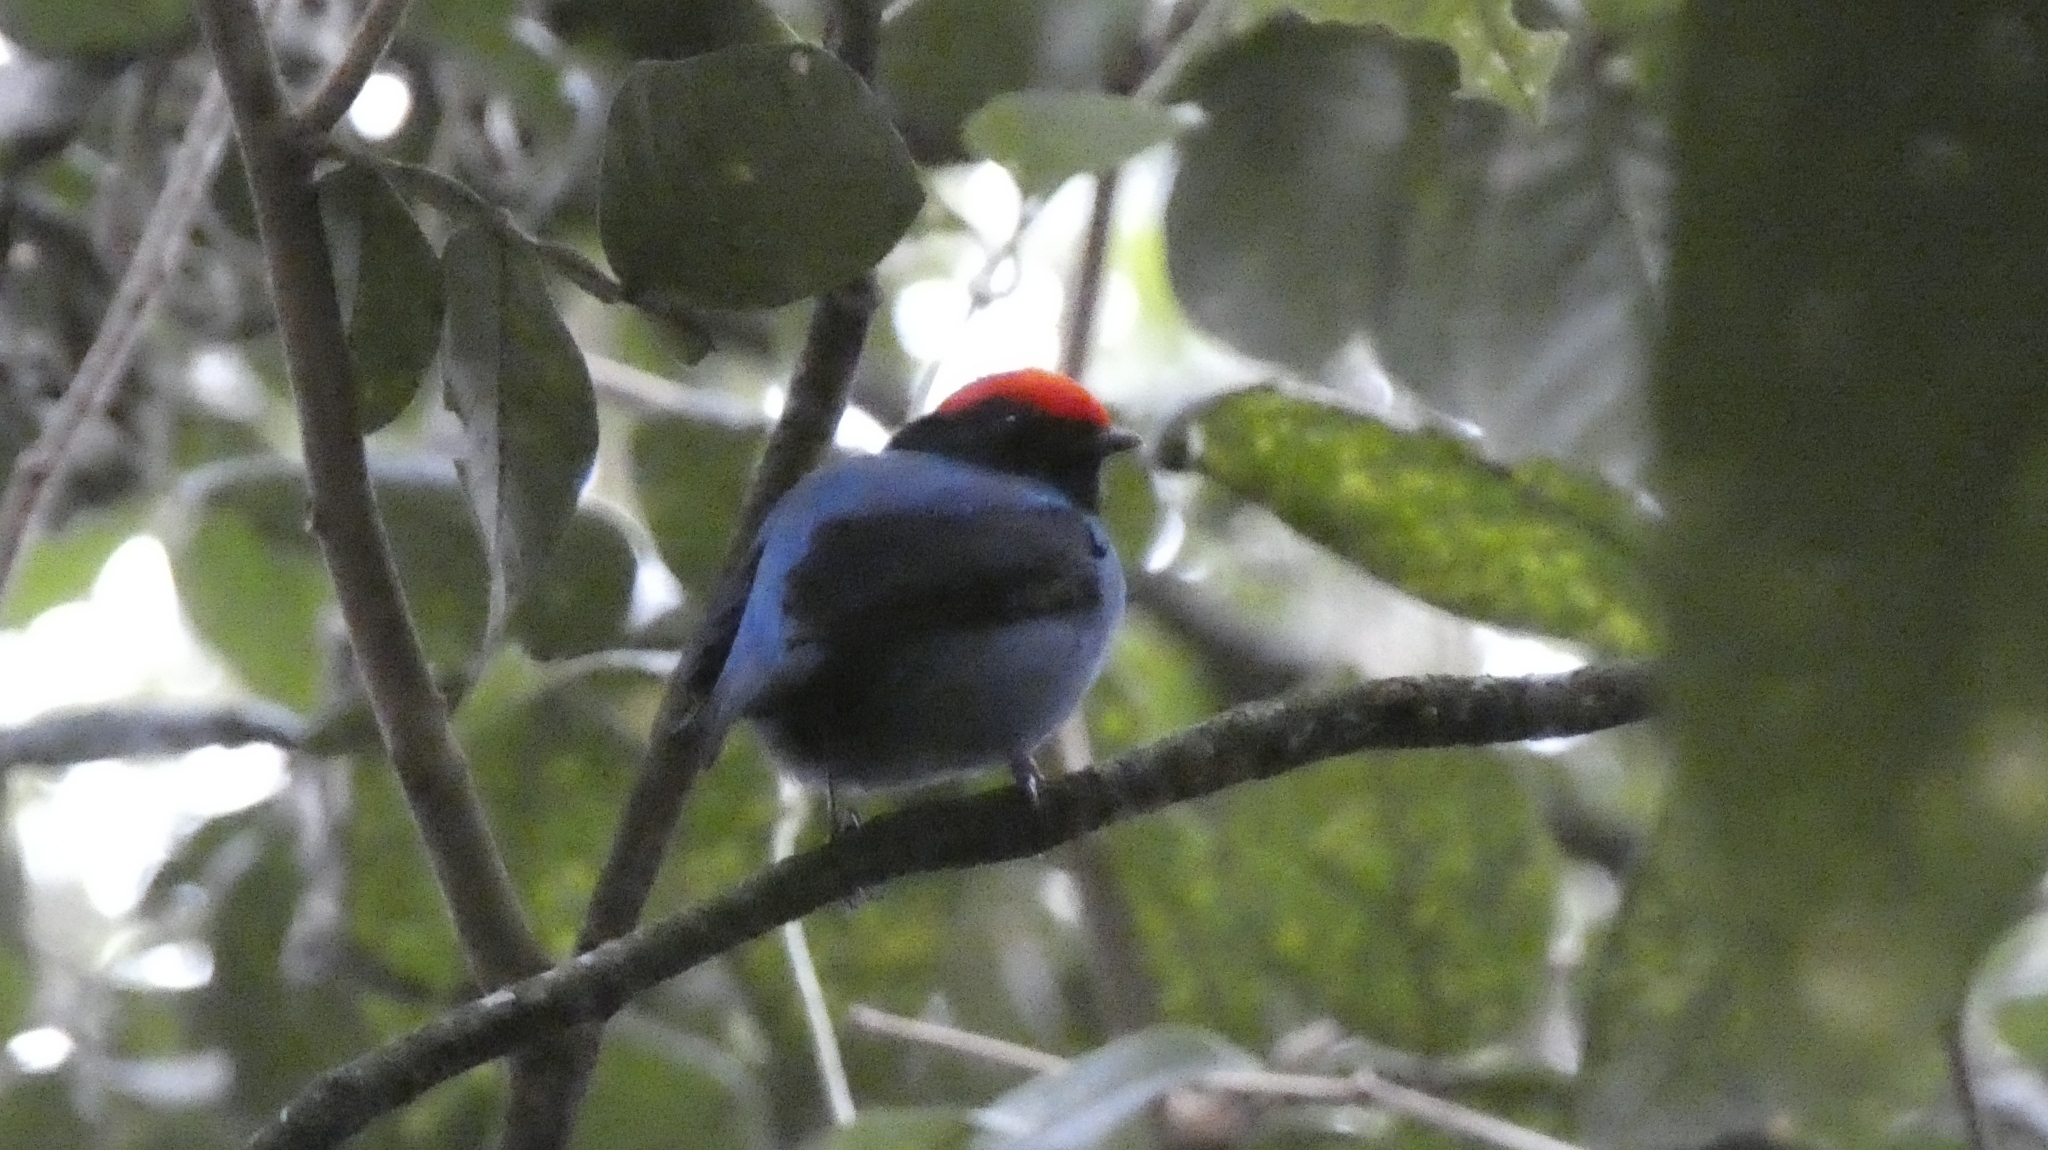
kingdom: Animalia
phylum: Chordata
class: Aves
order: Passeriformes
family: Pipridae
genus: Chiroxiphia
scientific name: Chiroxiphia caudata
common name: Blue manakin
